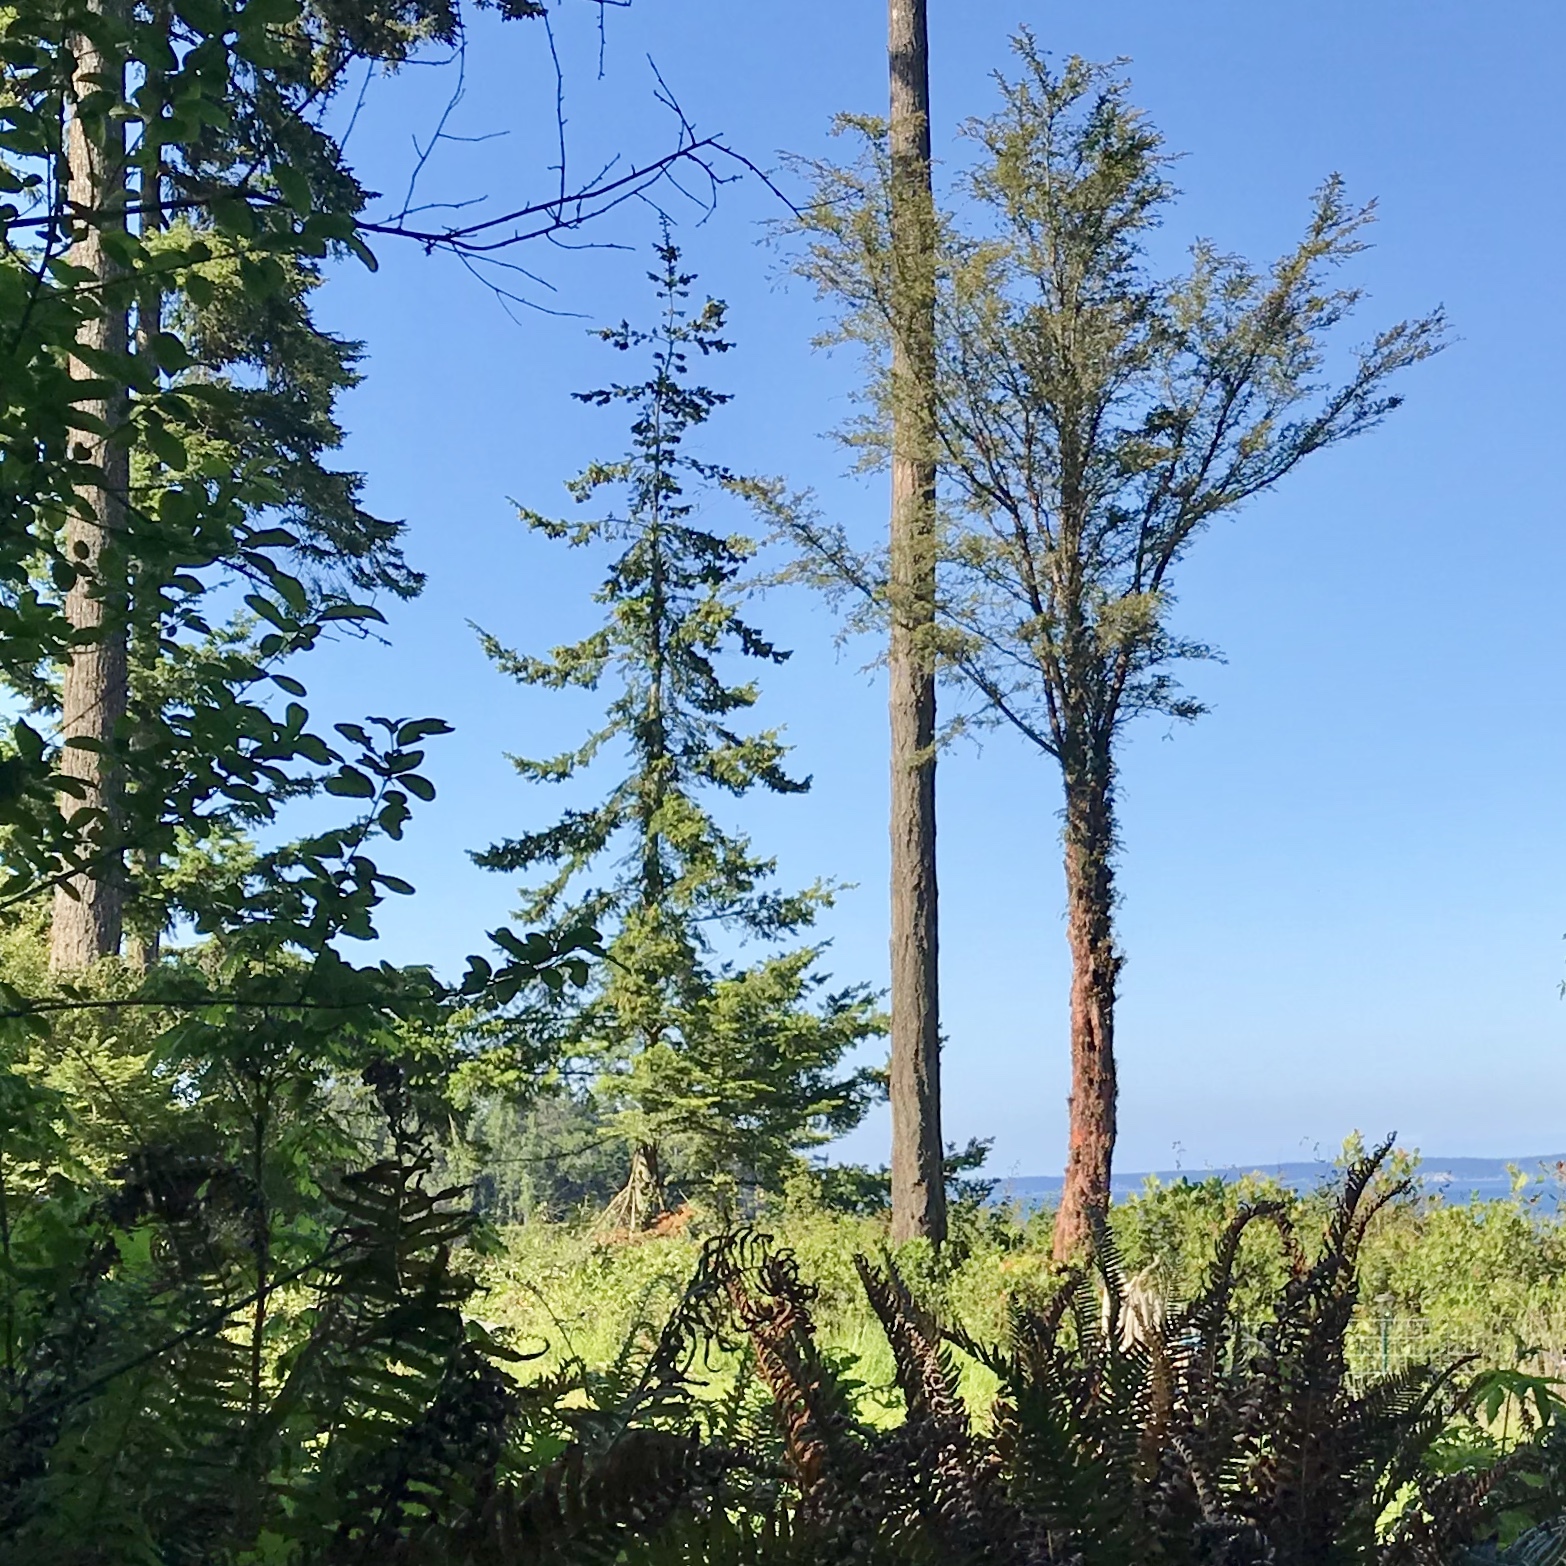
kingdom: Plantae
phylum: Tracheophyta
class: Pinopsida
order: Pinales
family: Taxaceae
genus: Taxus
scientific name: Taxus brevifolia
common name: Pacific yew
